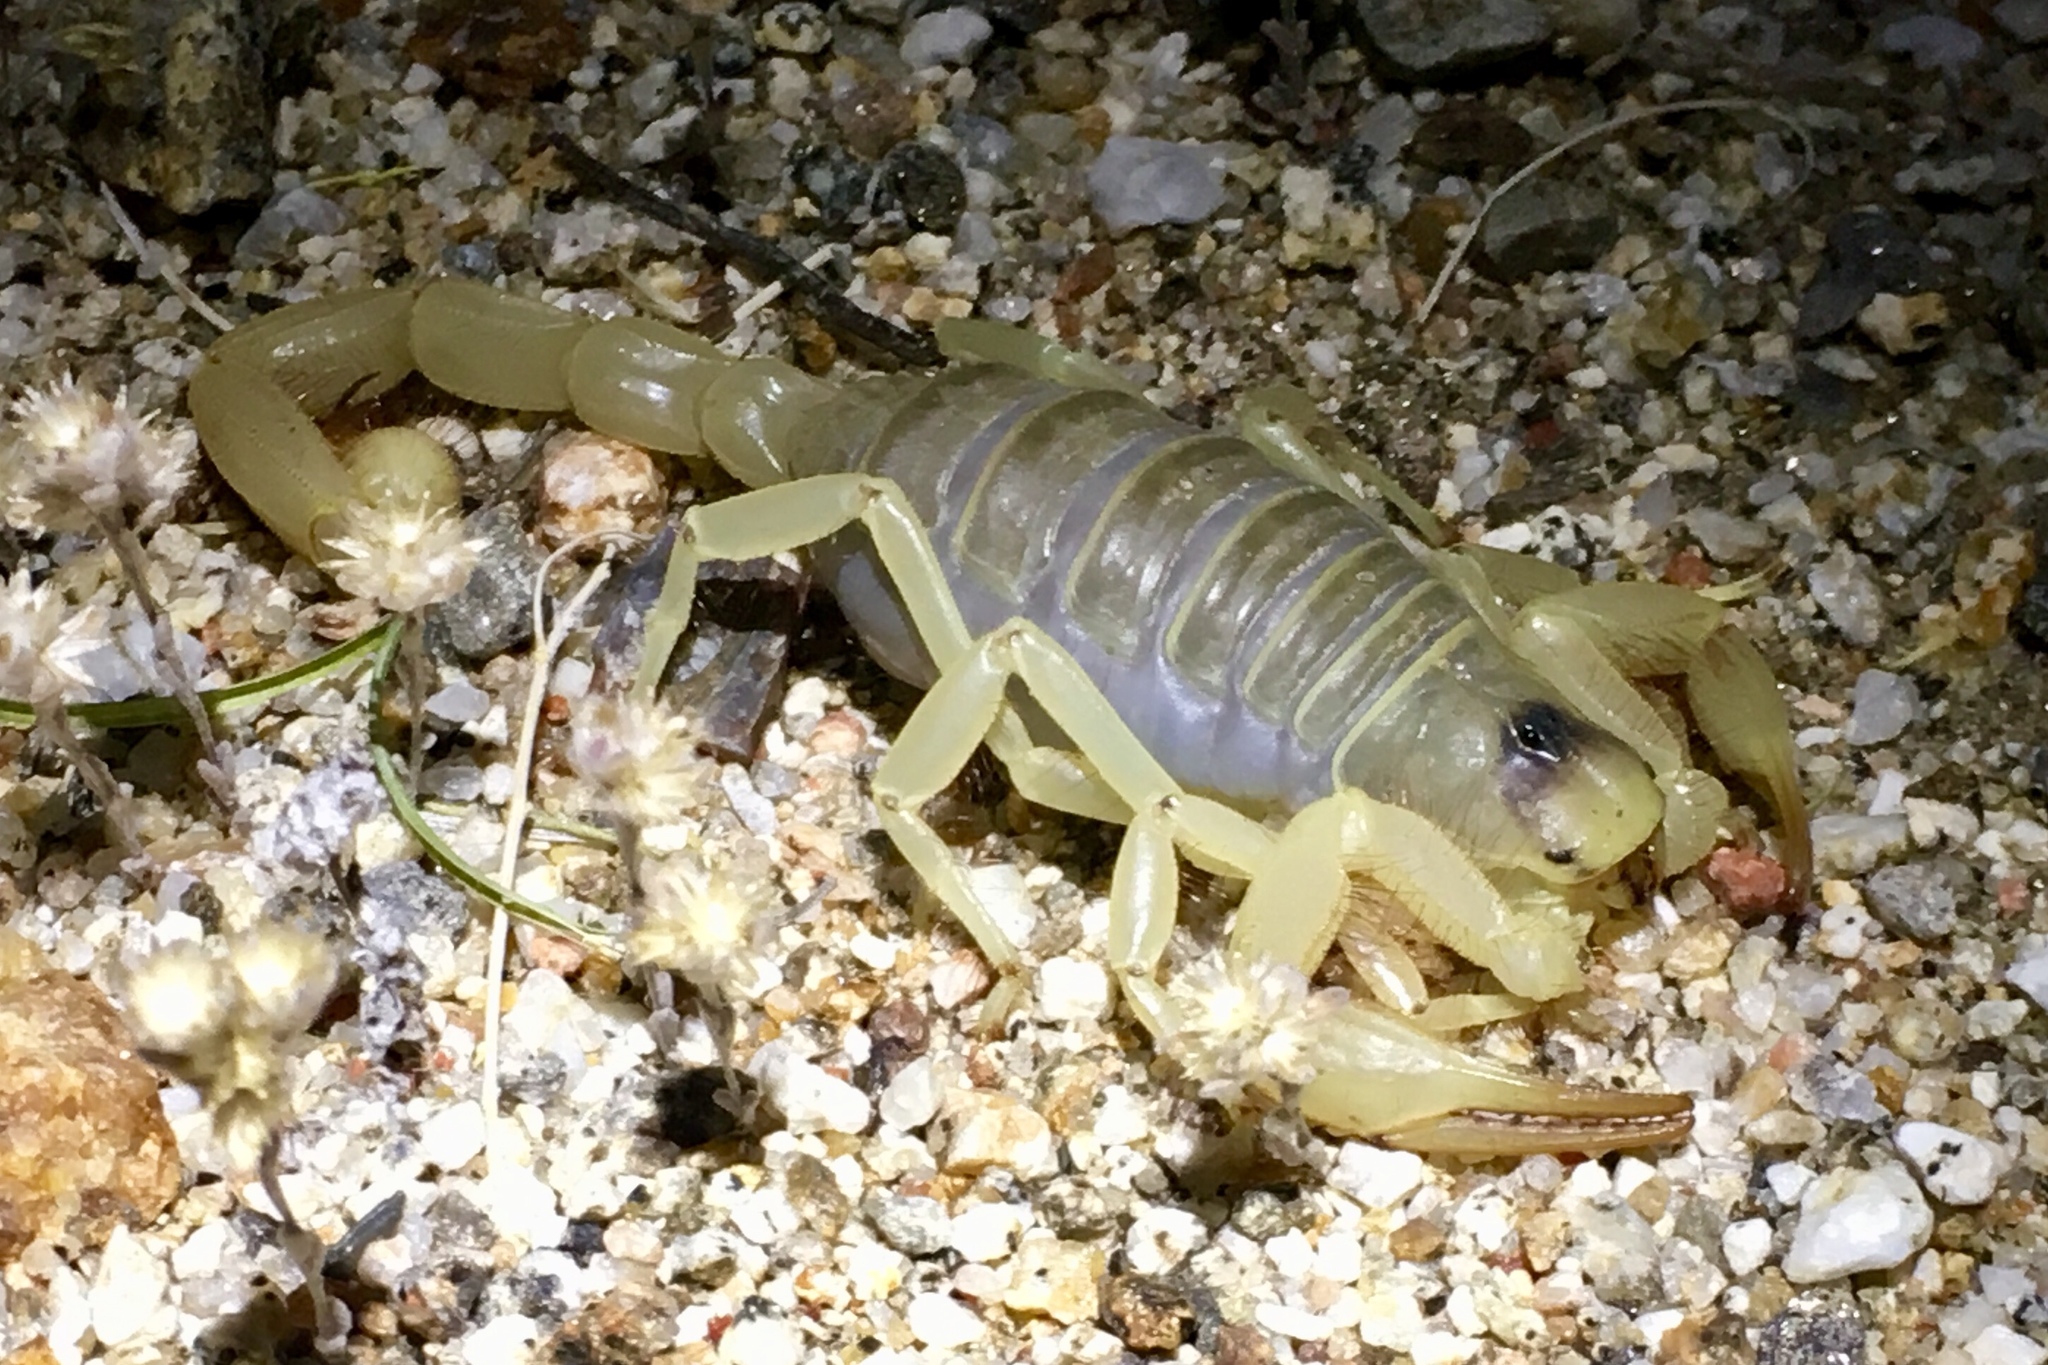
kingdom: Animalia
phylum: Arthropoda
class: Arachnida
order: Scorpiones
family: Hadruridae
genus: Hadrurus
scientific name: Hadrurus arizonensis
